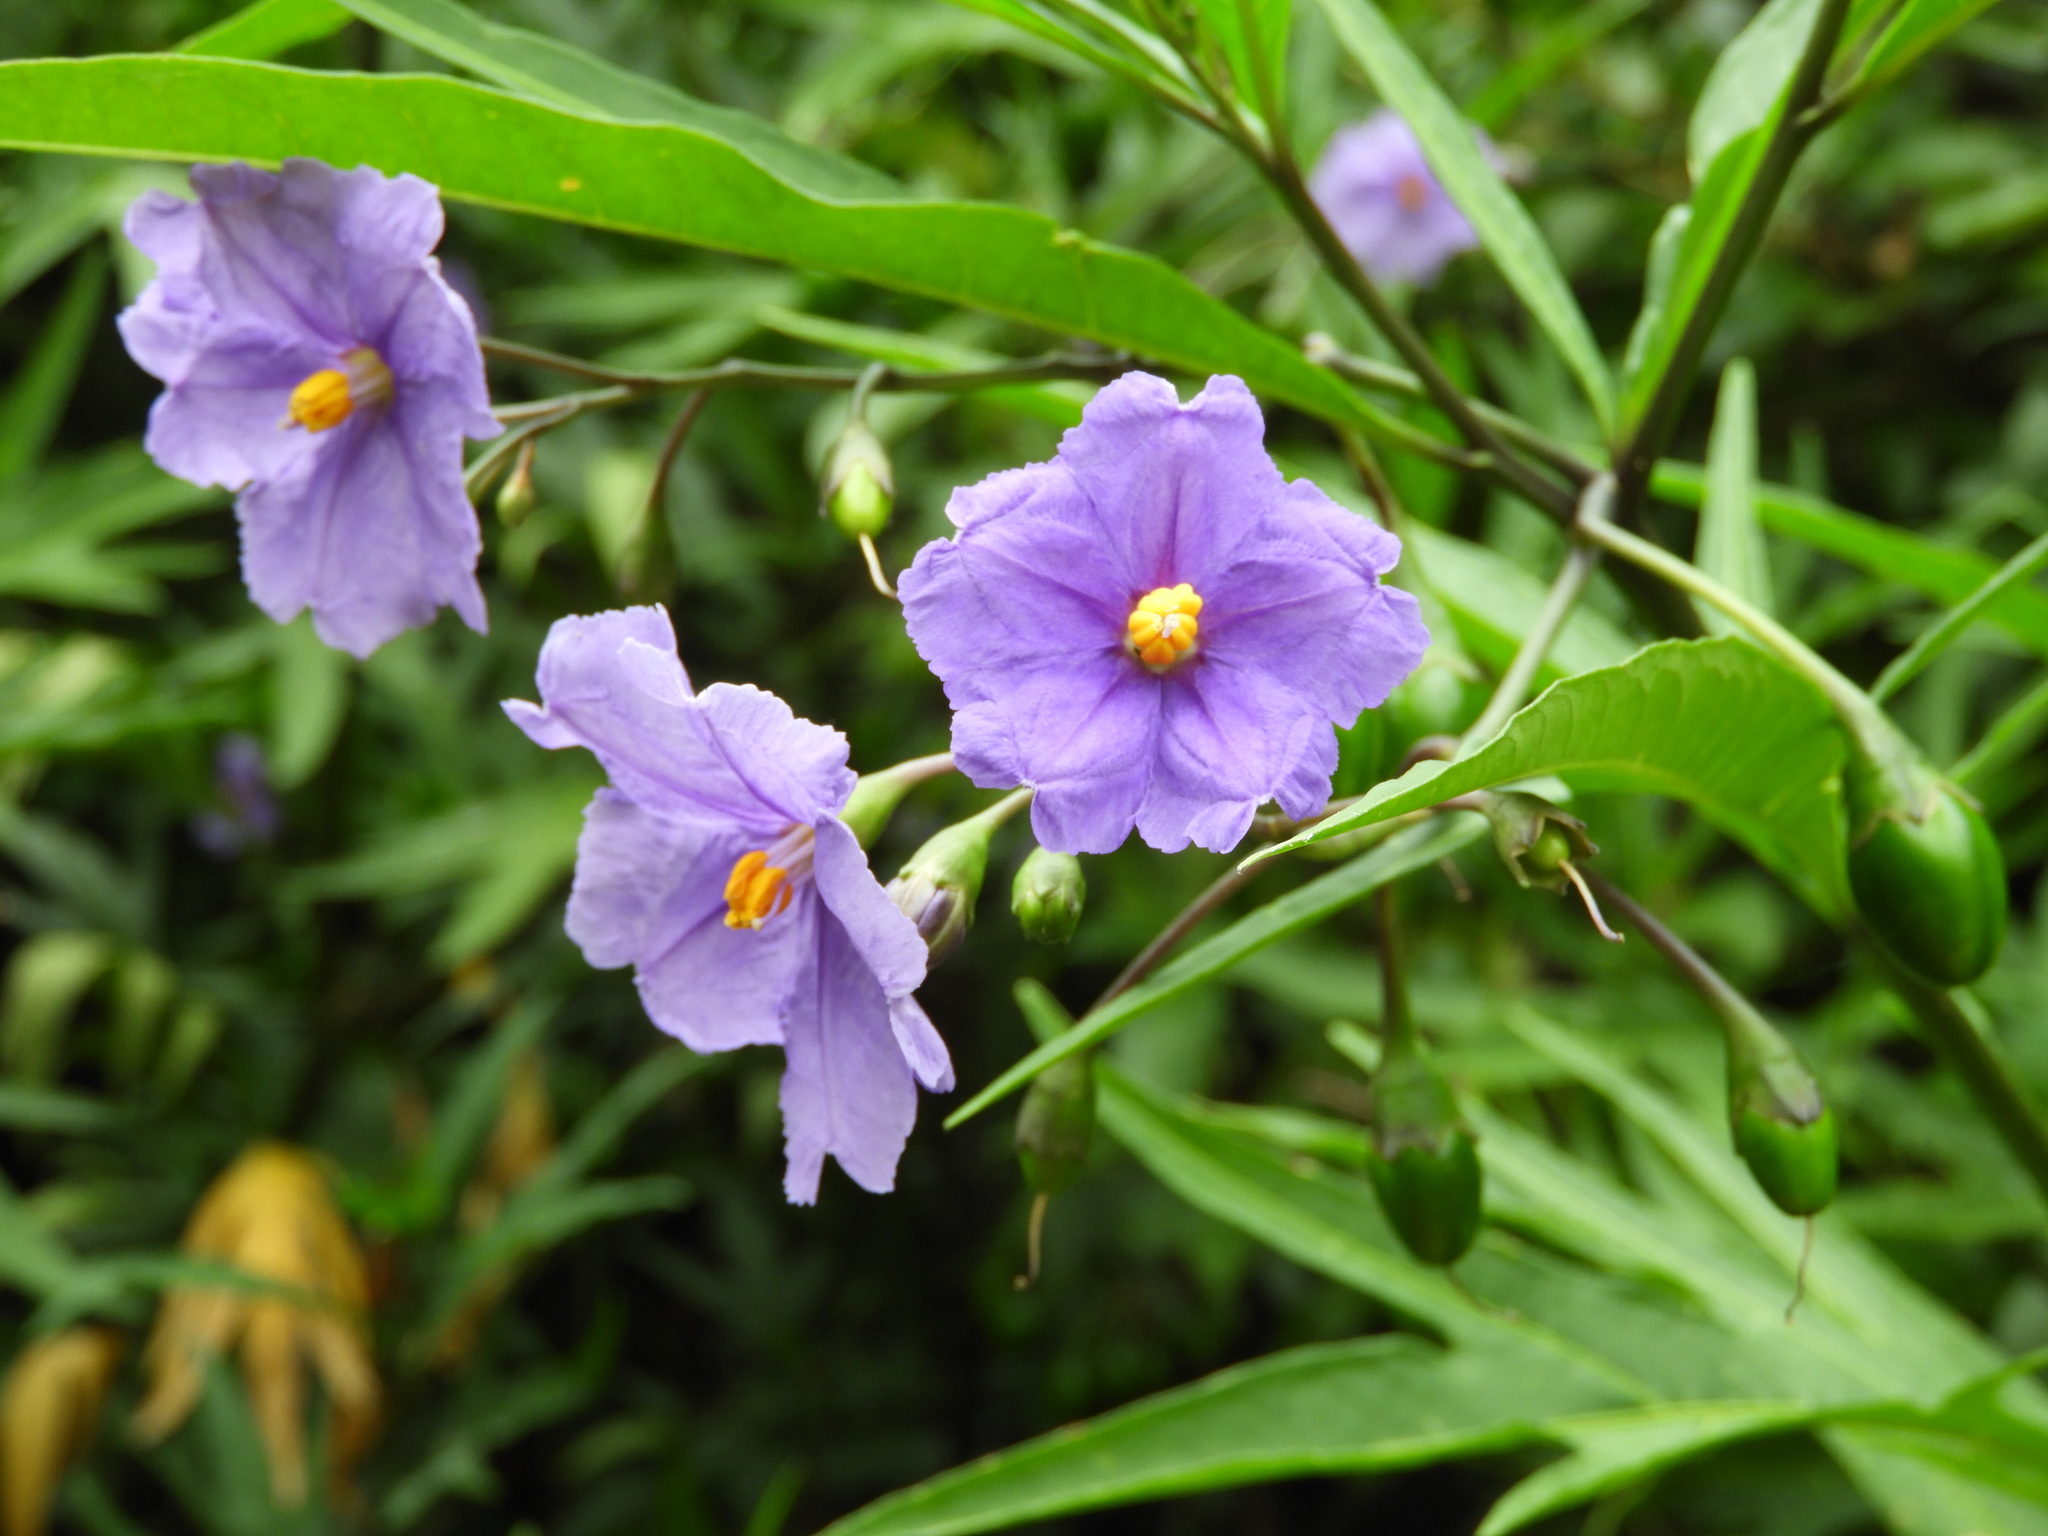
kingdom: Plantae
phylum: Tracheophyta
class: Magnoliopsida
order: Solanales
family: Solanaceae
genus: Solanum
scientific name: Solanum laciniatum
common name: Kangaroo-apple
